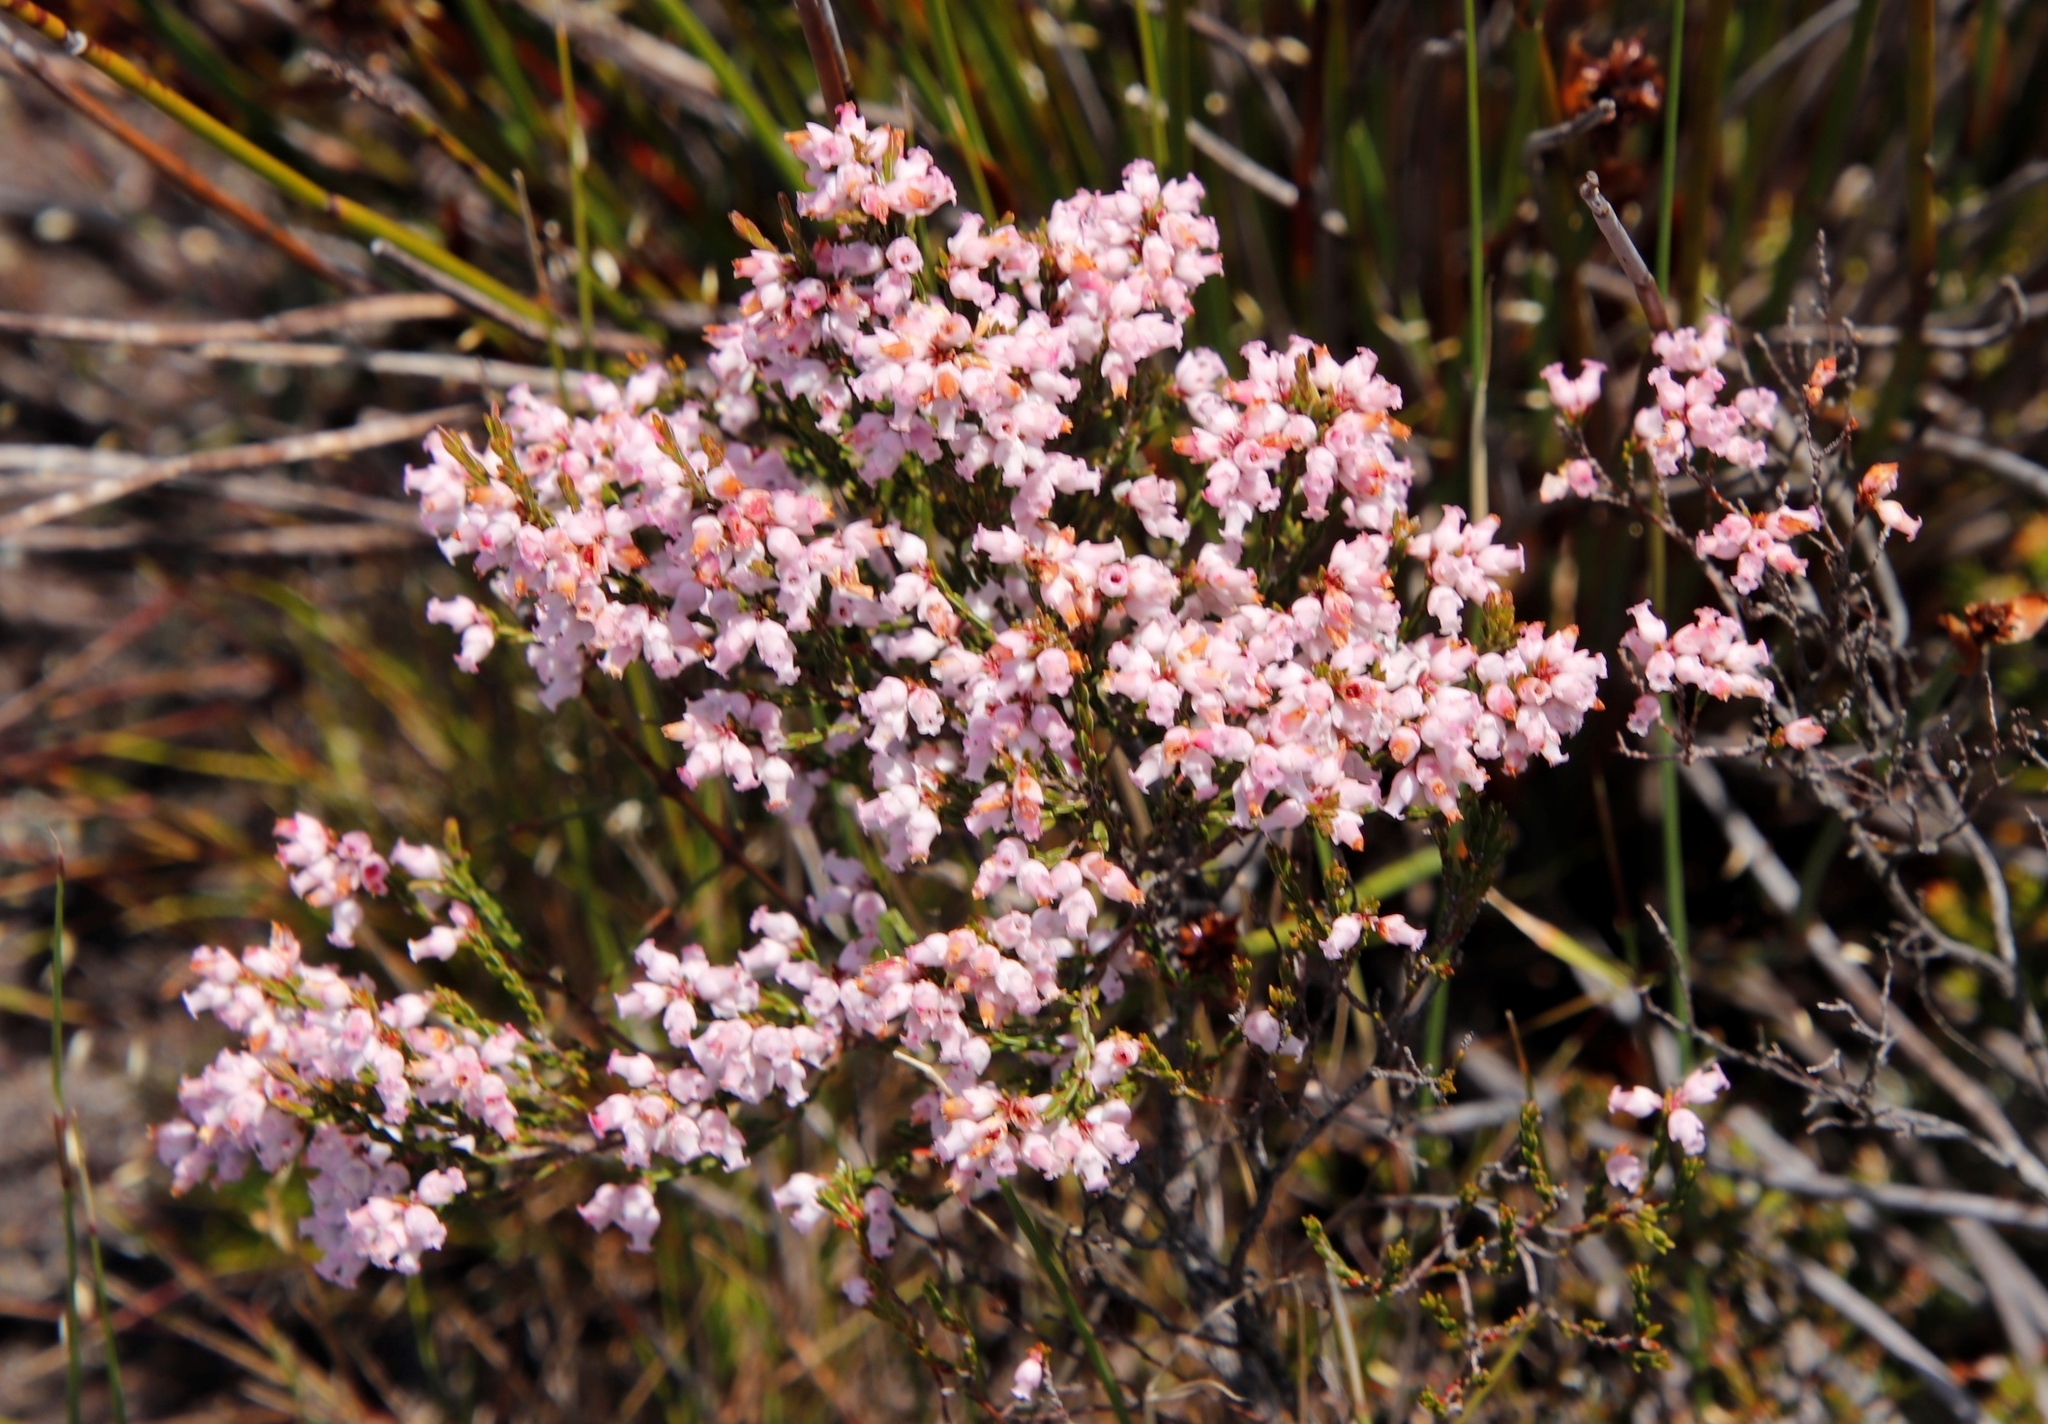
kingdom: Plantae
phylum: Tracheophyta
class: Magnoliopsida
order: Ericales
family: Ericaceae
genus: Erica
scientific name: Erica tenuifolia
